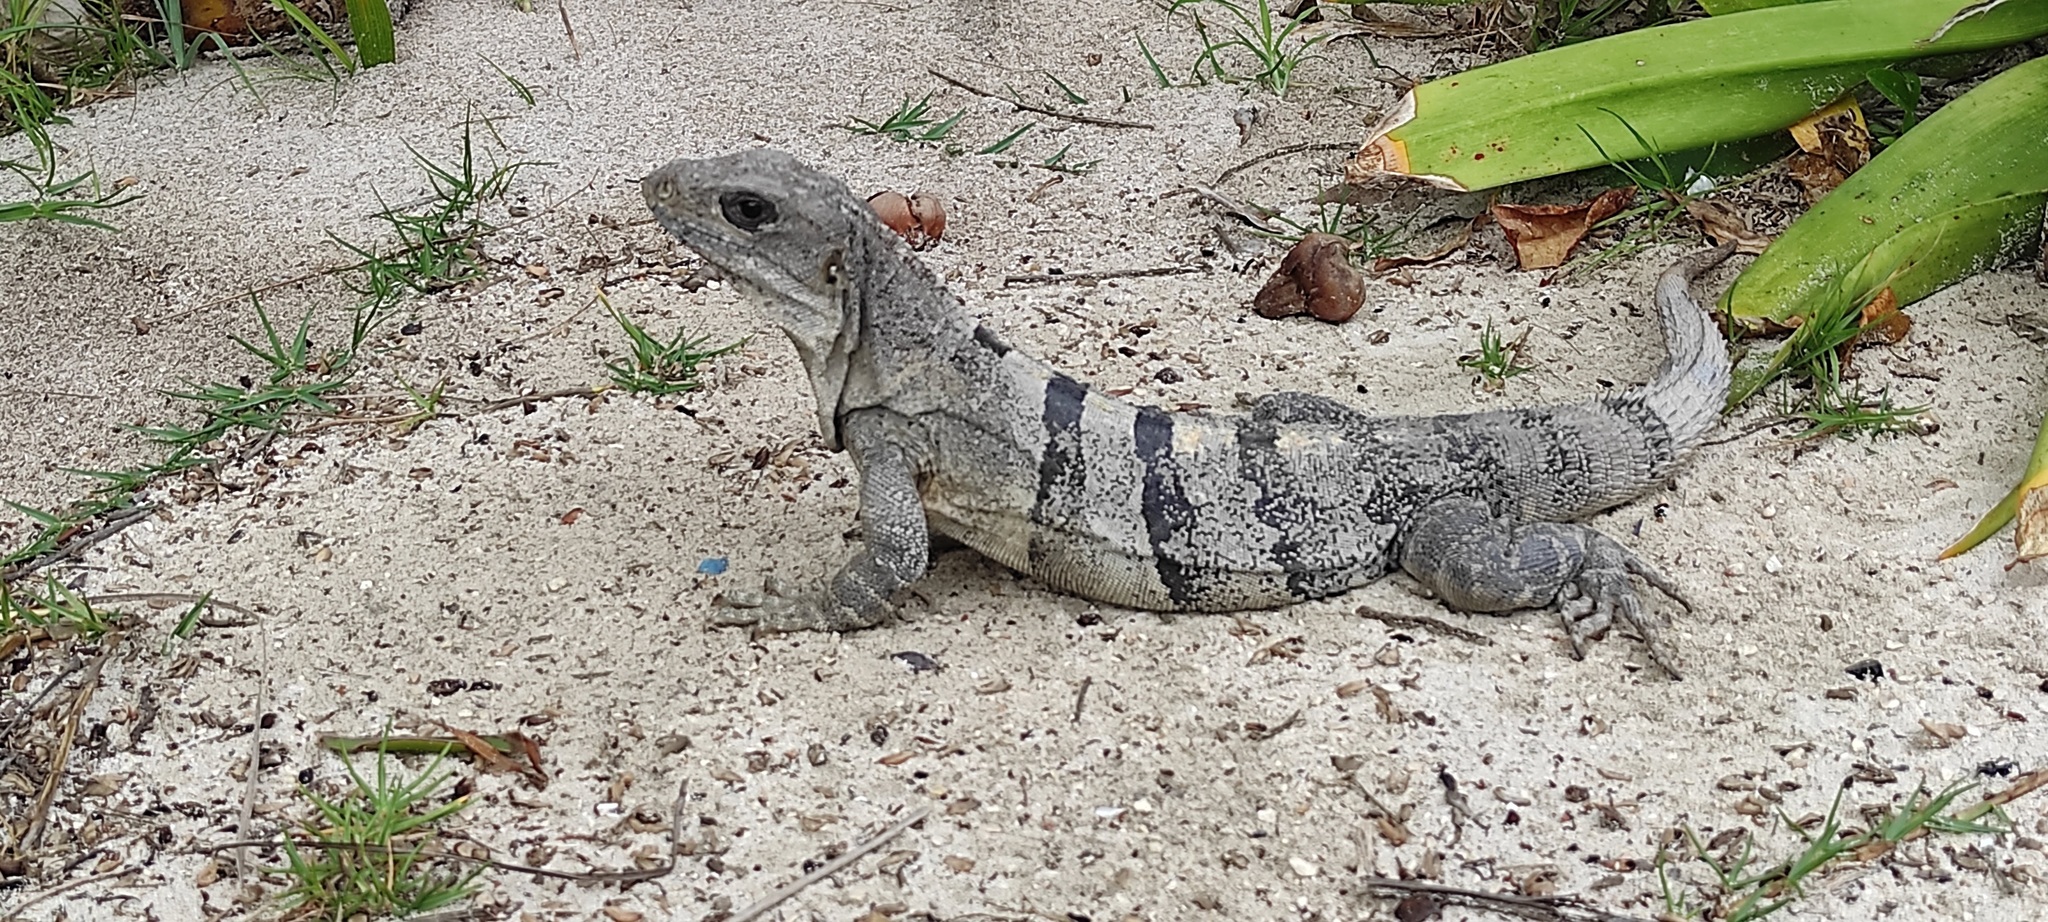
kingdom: Animalia
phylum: Chordata
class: Squamata
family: Iguanidae
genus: Ctenosaura
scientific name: Ctenosaura similis
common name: Black spiny-tailed iguana
